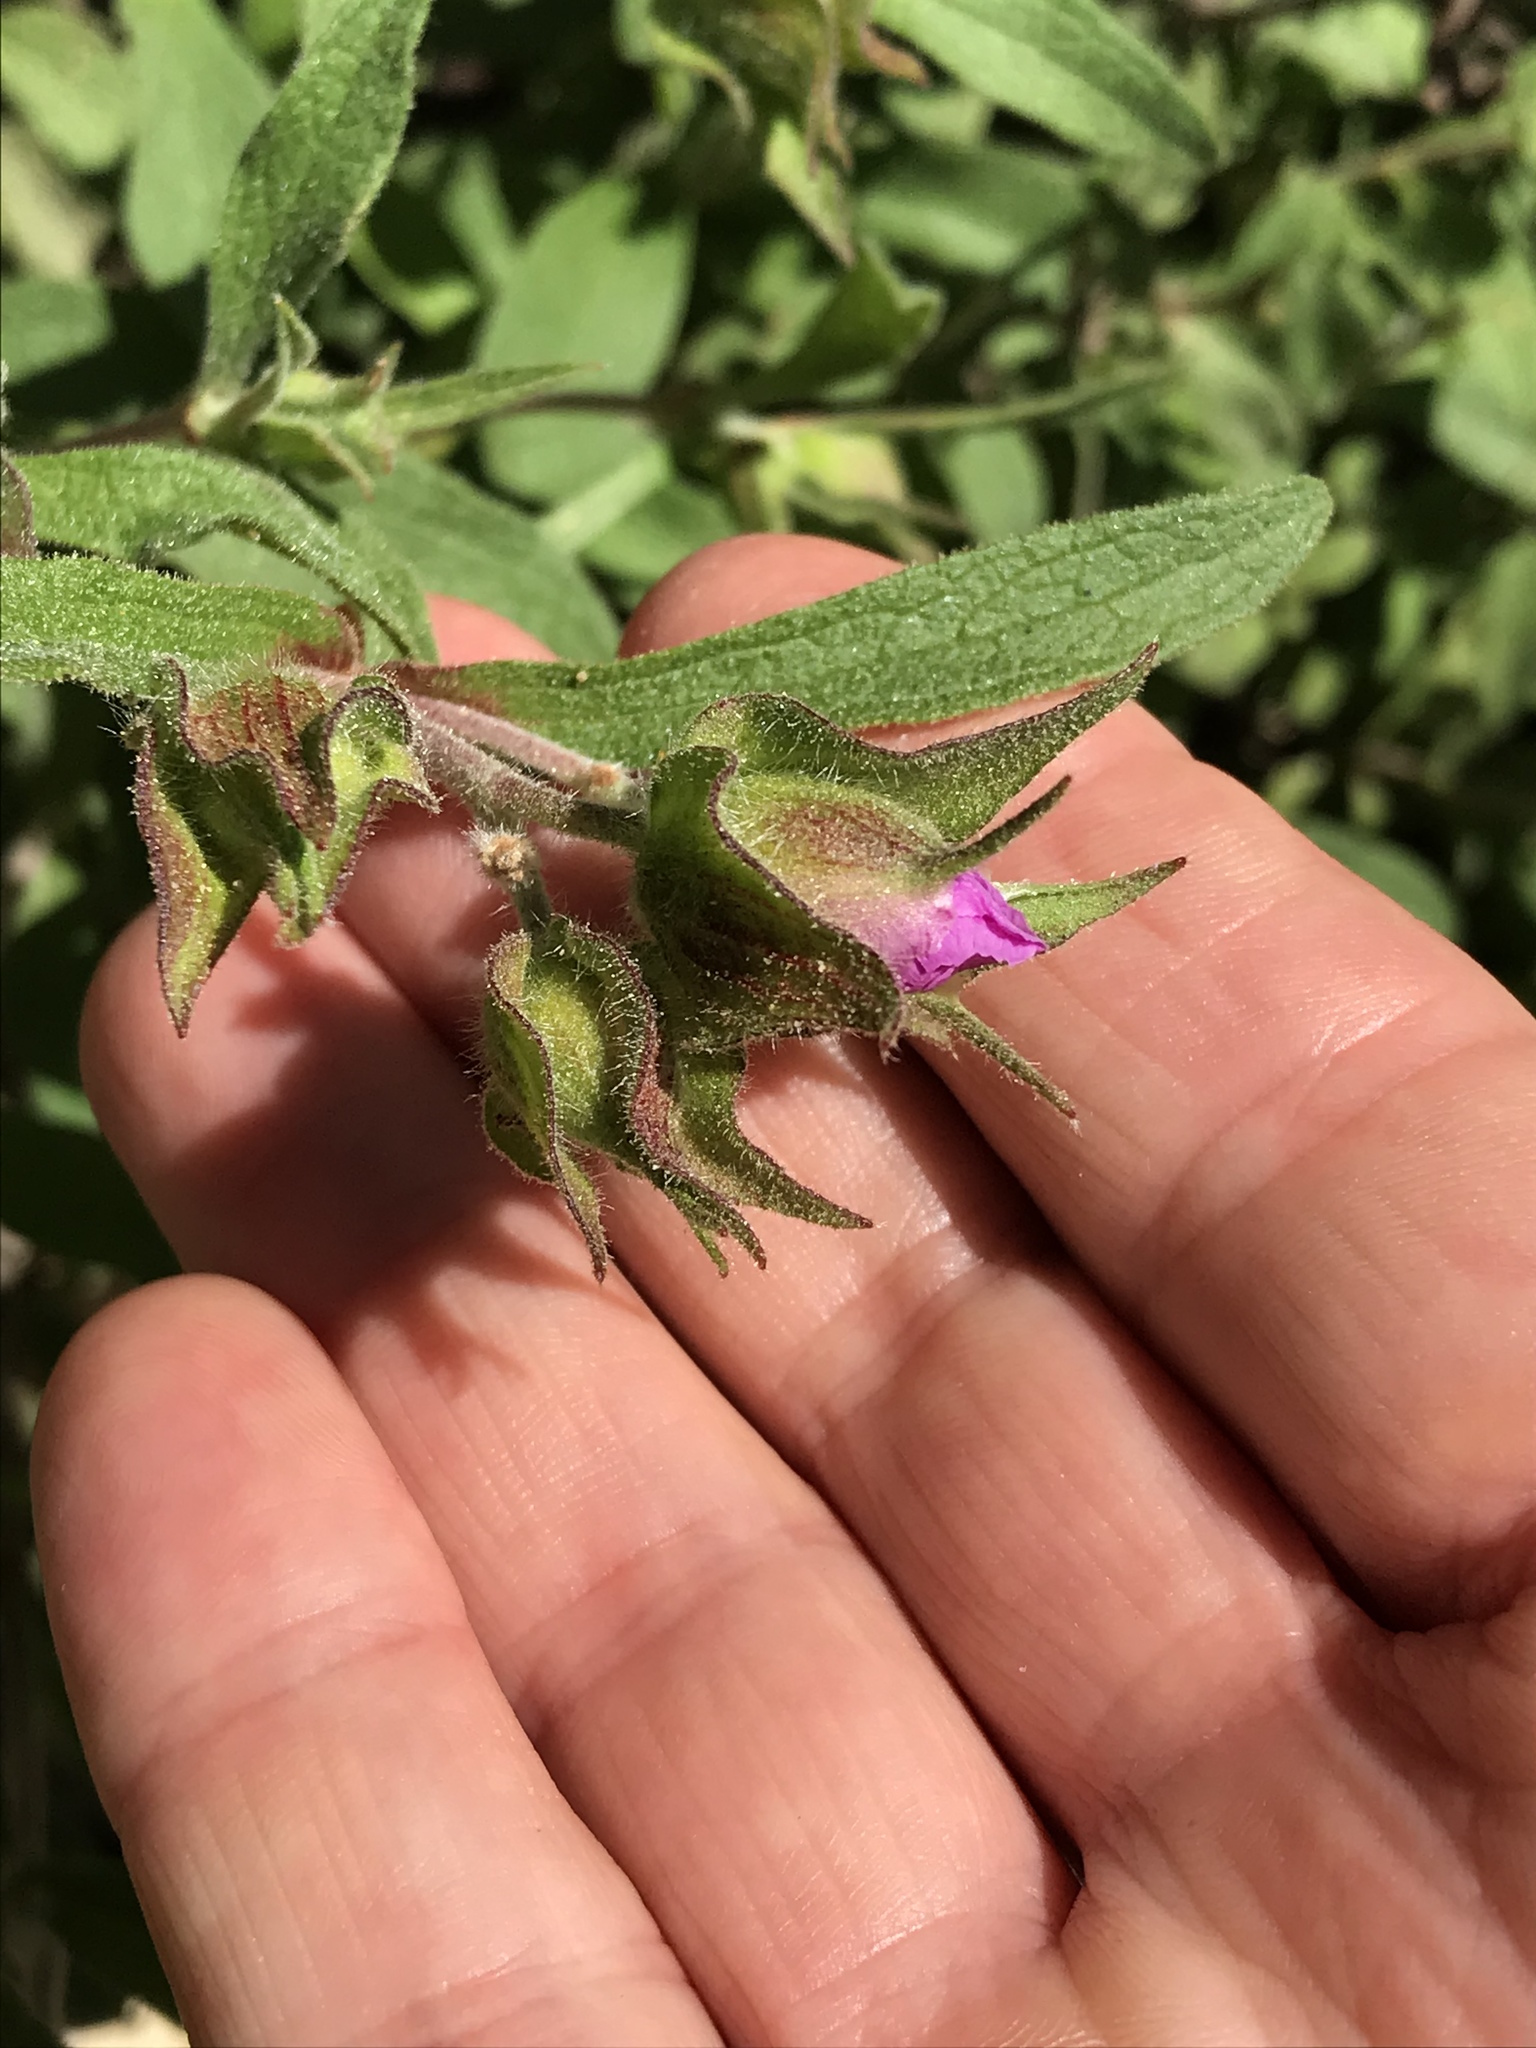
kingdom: Plantae
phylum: Tracheophyta
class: Magnoliopsida
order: Malvales
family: Cistaceae
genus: Cistus
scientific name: Cistus creticus
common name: Cretan rockrose
